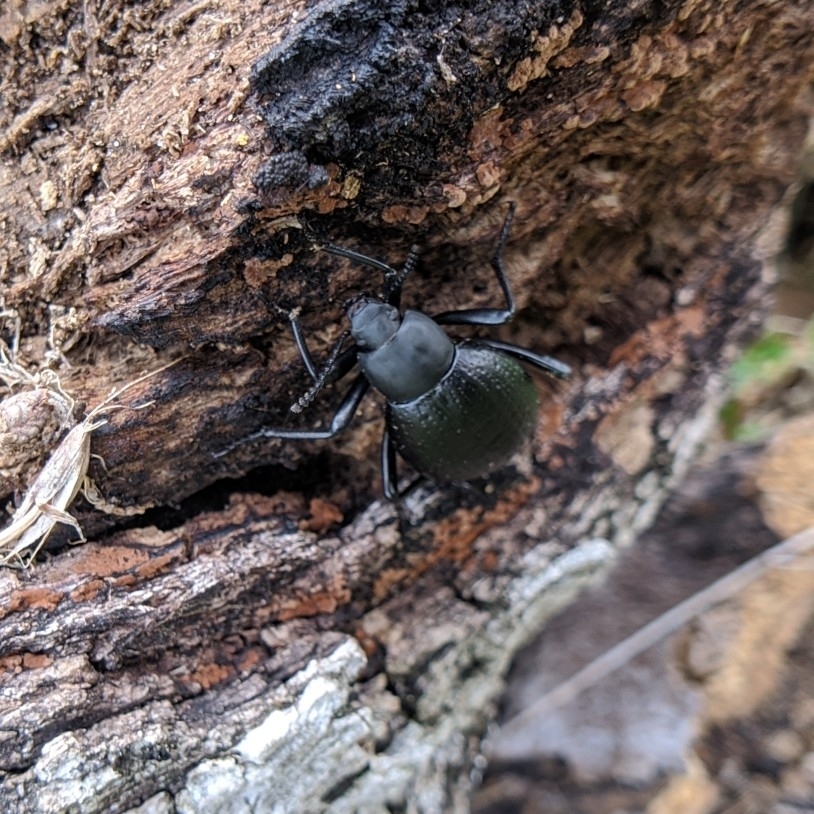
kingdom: Animalia
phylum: Arthropoda
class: Insecta
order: Coleoptera
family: Tenebrionidae
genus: Eleodes
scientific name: Eleodes goryi
